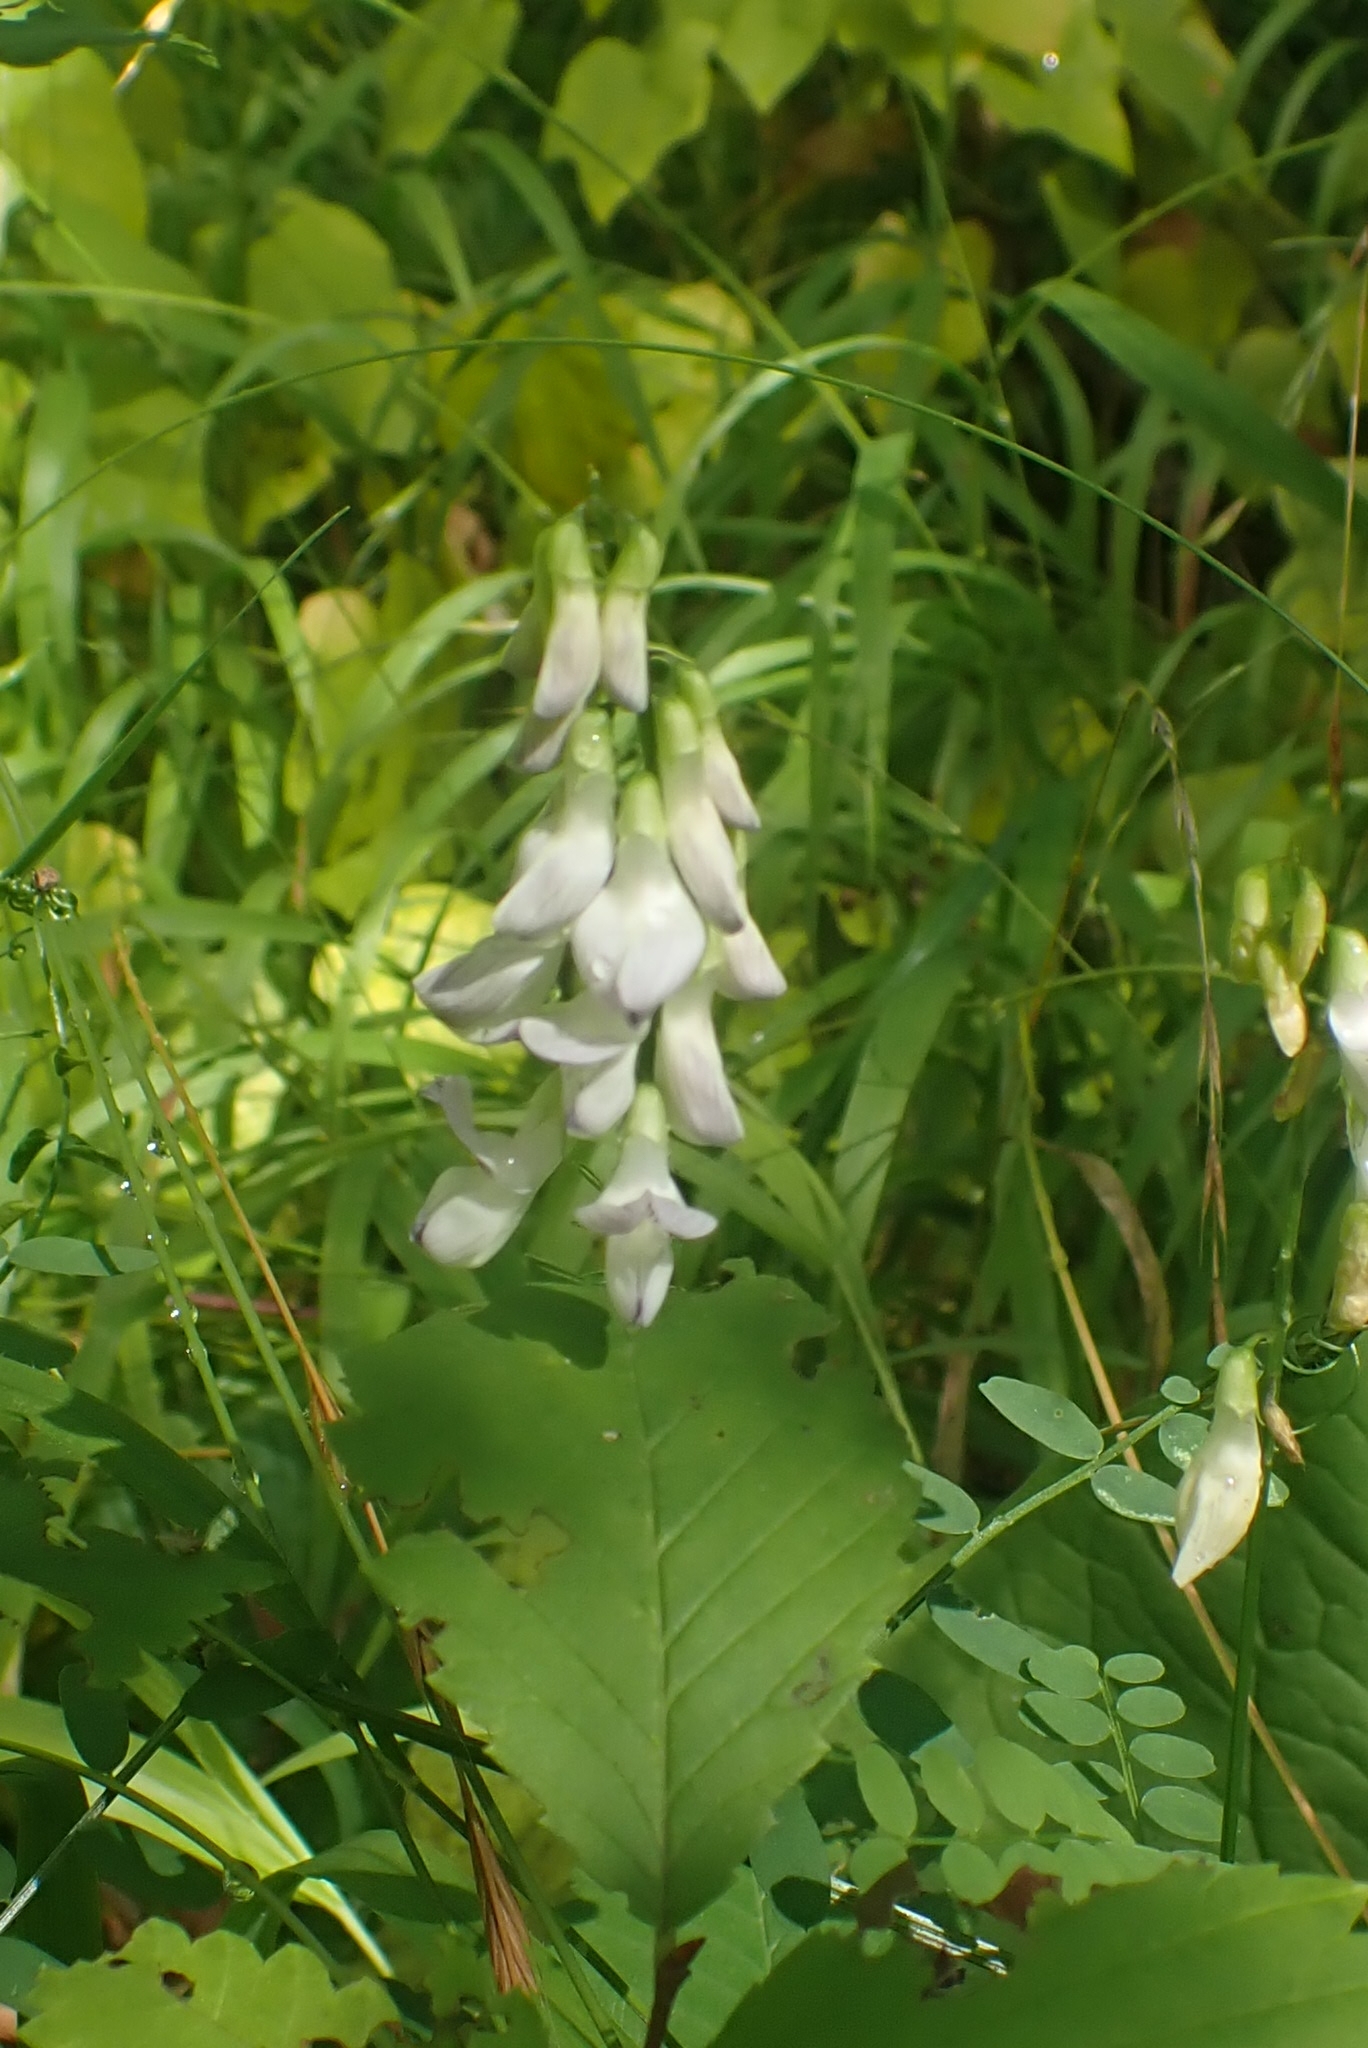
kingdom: Plantae
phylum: Tracheophyta
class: Magnoliopsida
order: Fabales
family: Fabaceae
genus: Vicia
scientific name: Vicia sylvatica
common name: Wood vetch
